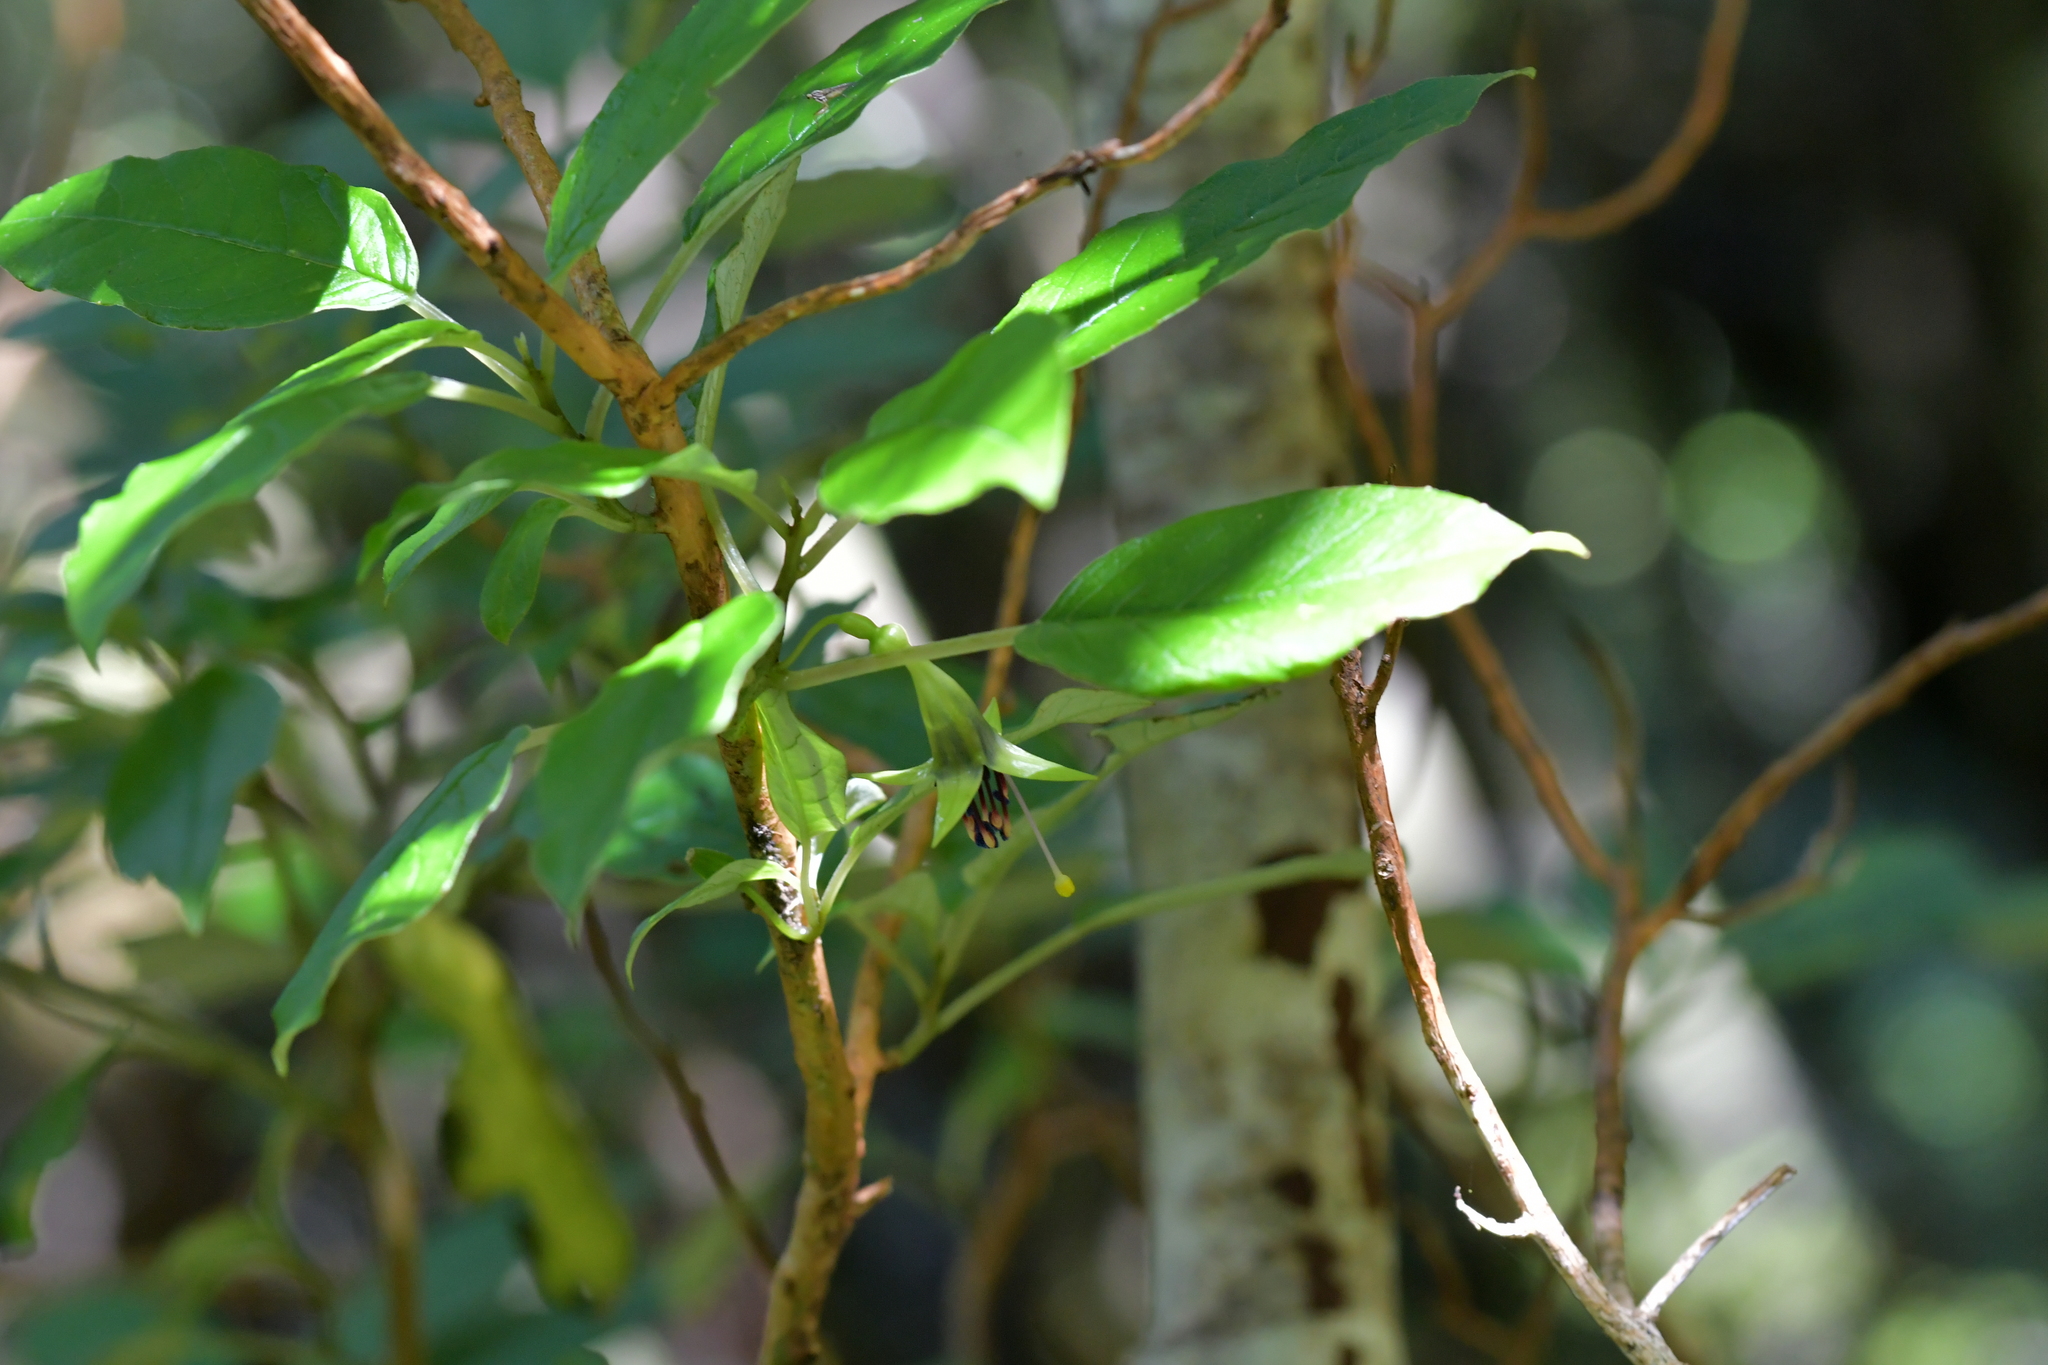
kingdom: Plantae
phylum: Tracheophyta
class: Magnoliopsida
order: Myrtales
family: Onagraceae
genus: Fuchsia
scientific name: Fuchsia excorticata
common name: Tree fuchsia
